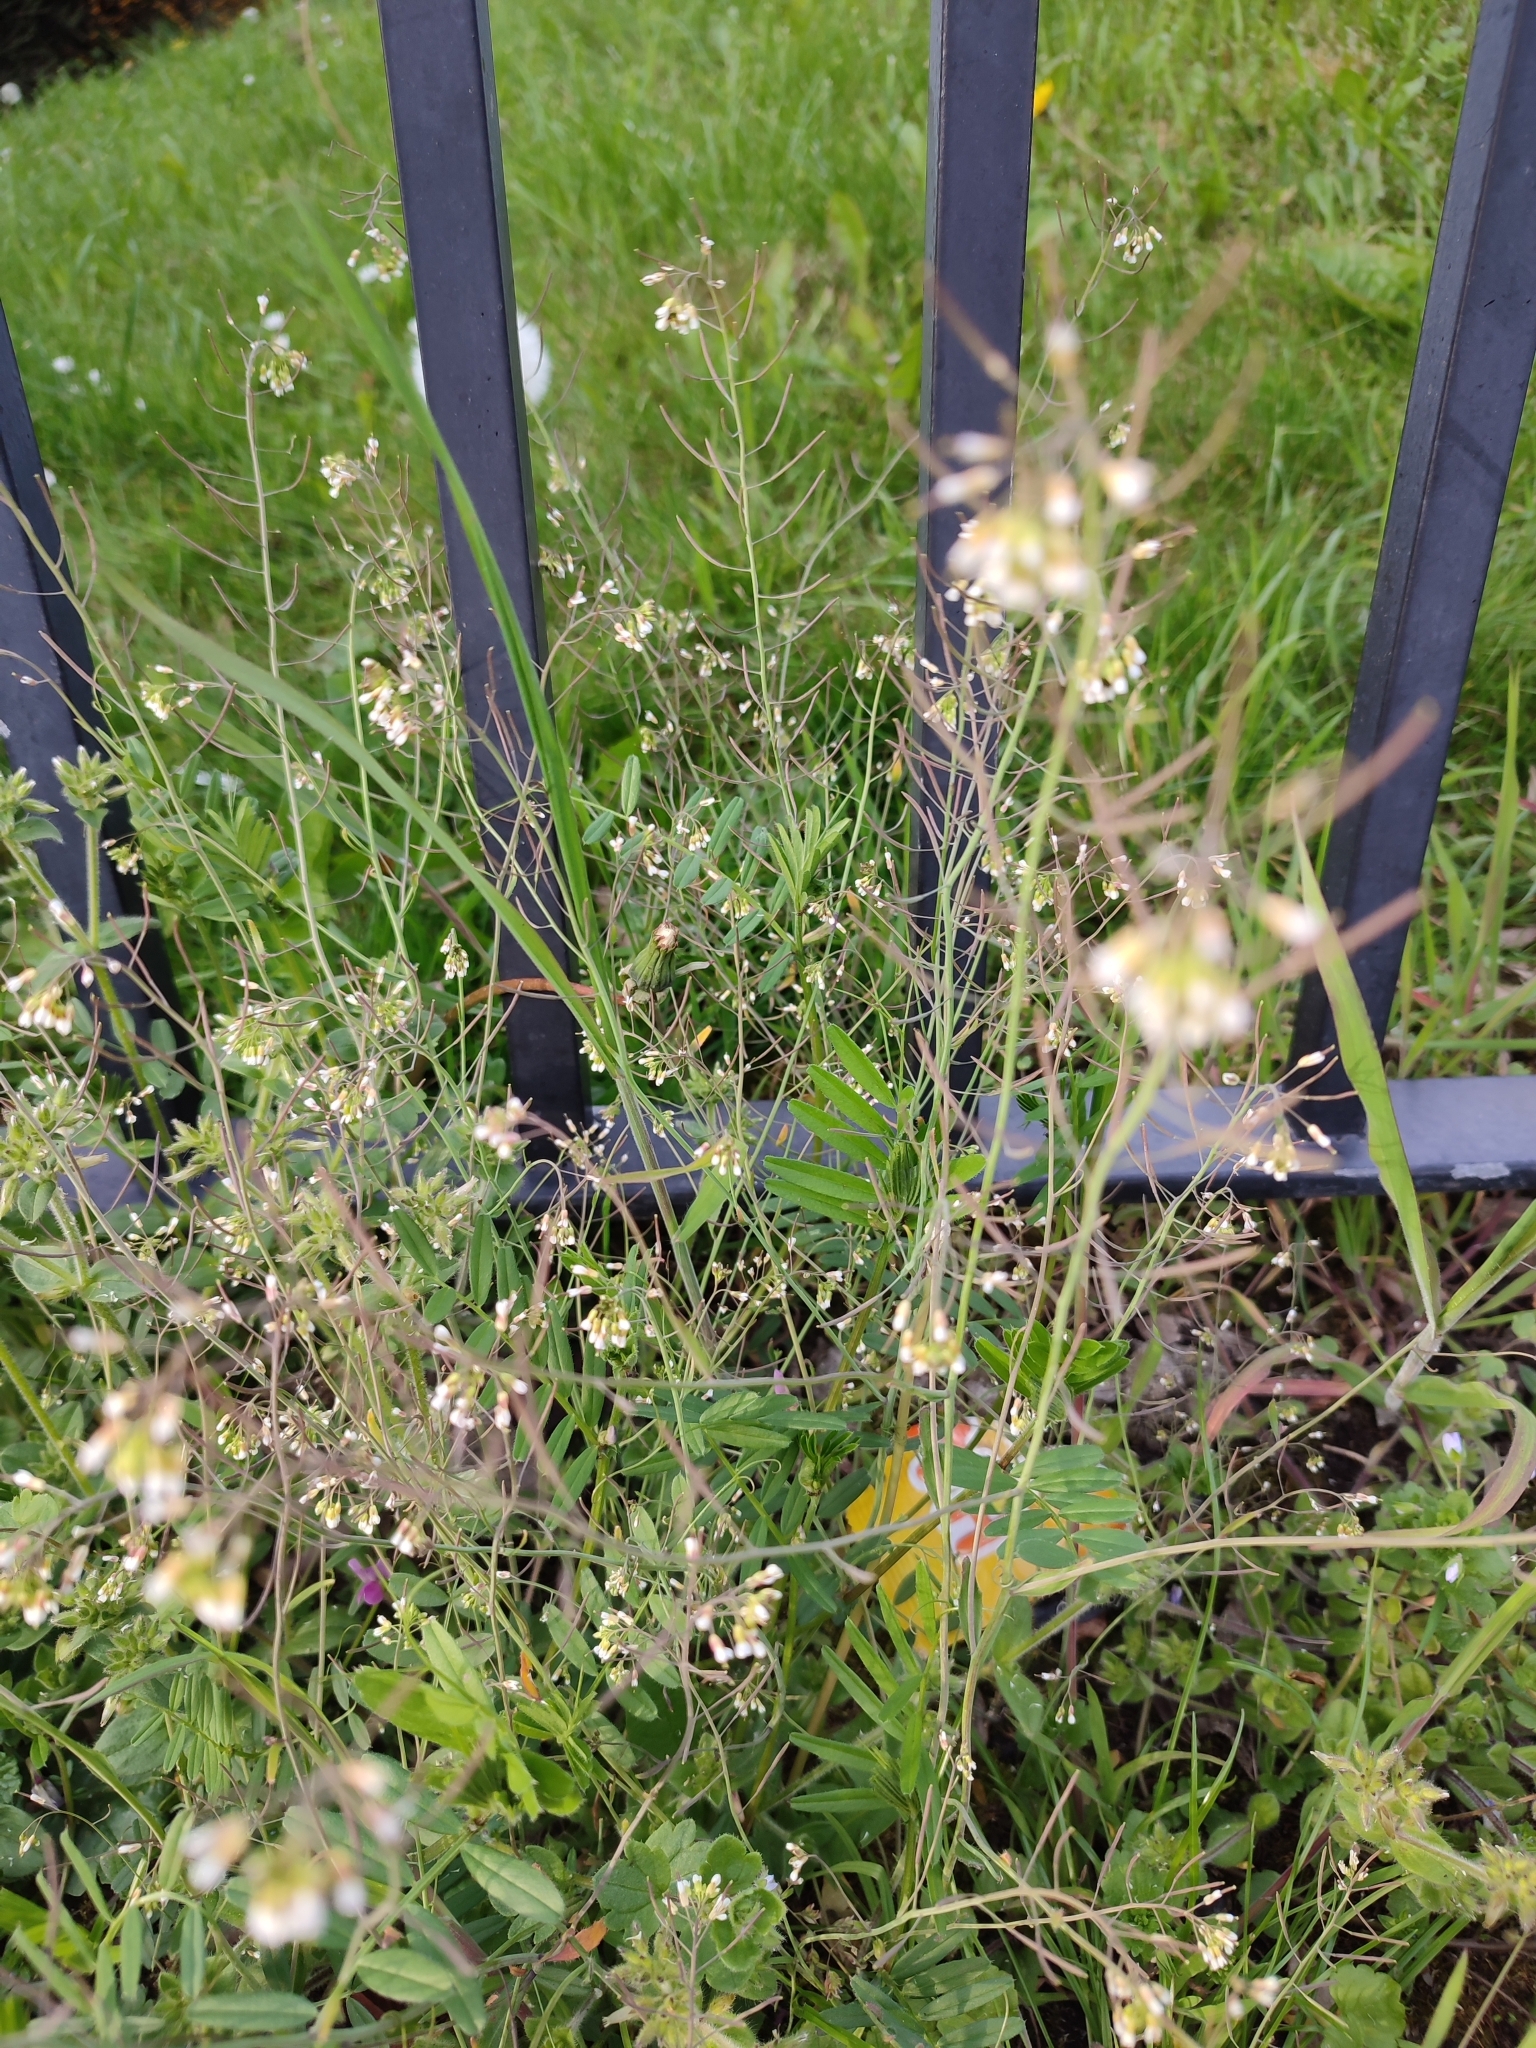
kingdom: Plantae
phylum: Tracheophyta
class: Magnoliopsida
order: Brassicales
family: Brassicaceae
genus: Arabidopsis
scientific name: Arabidopsis thaliana
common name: Thale cress
